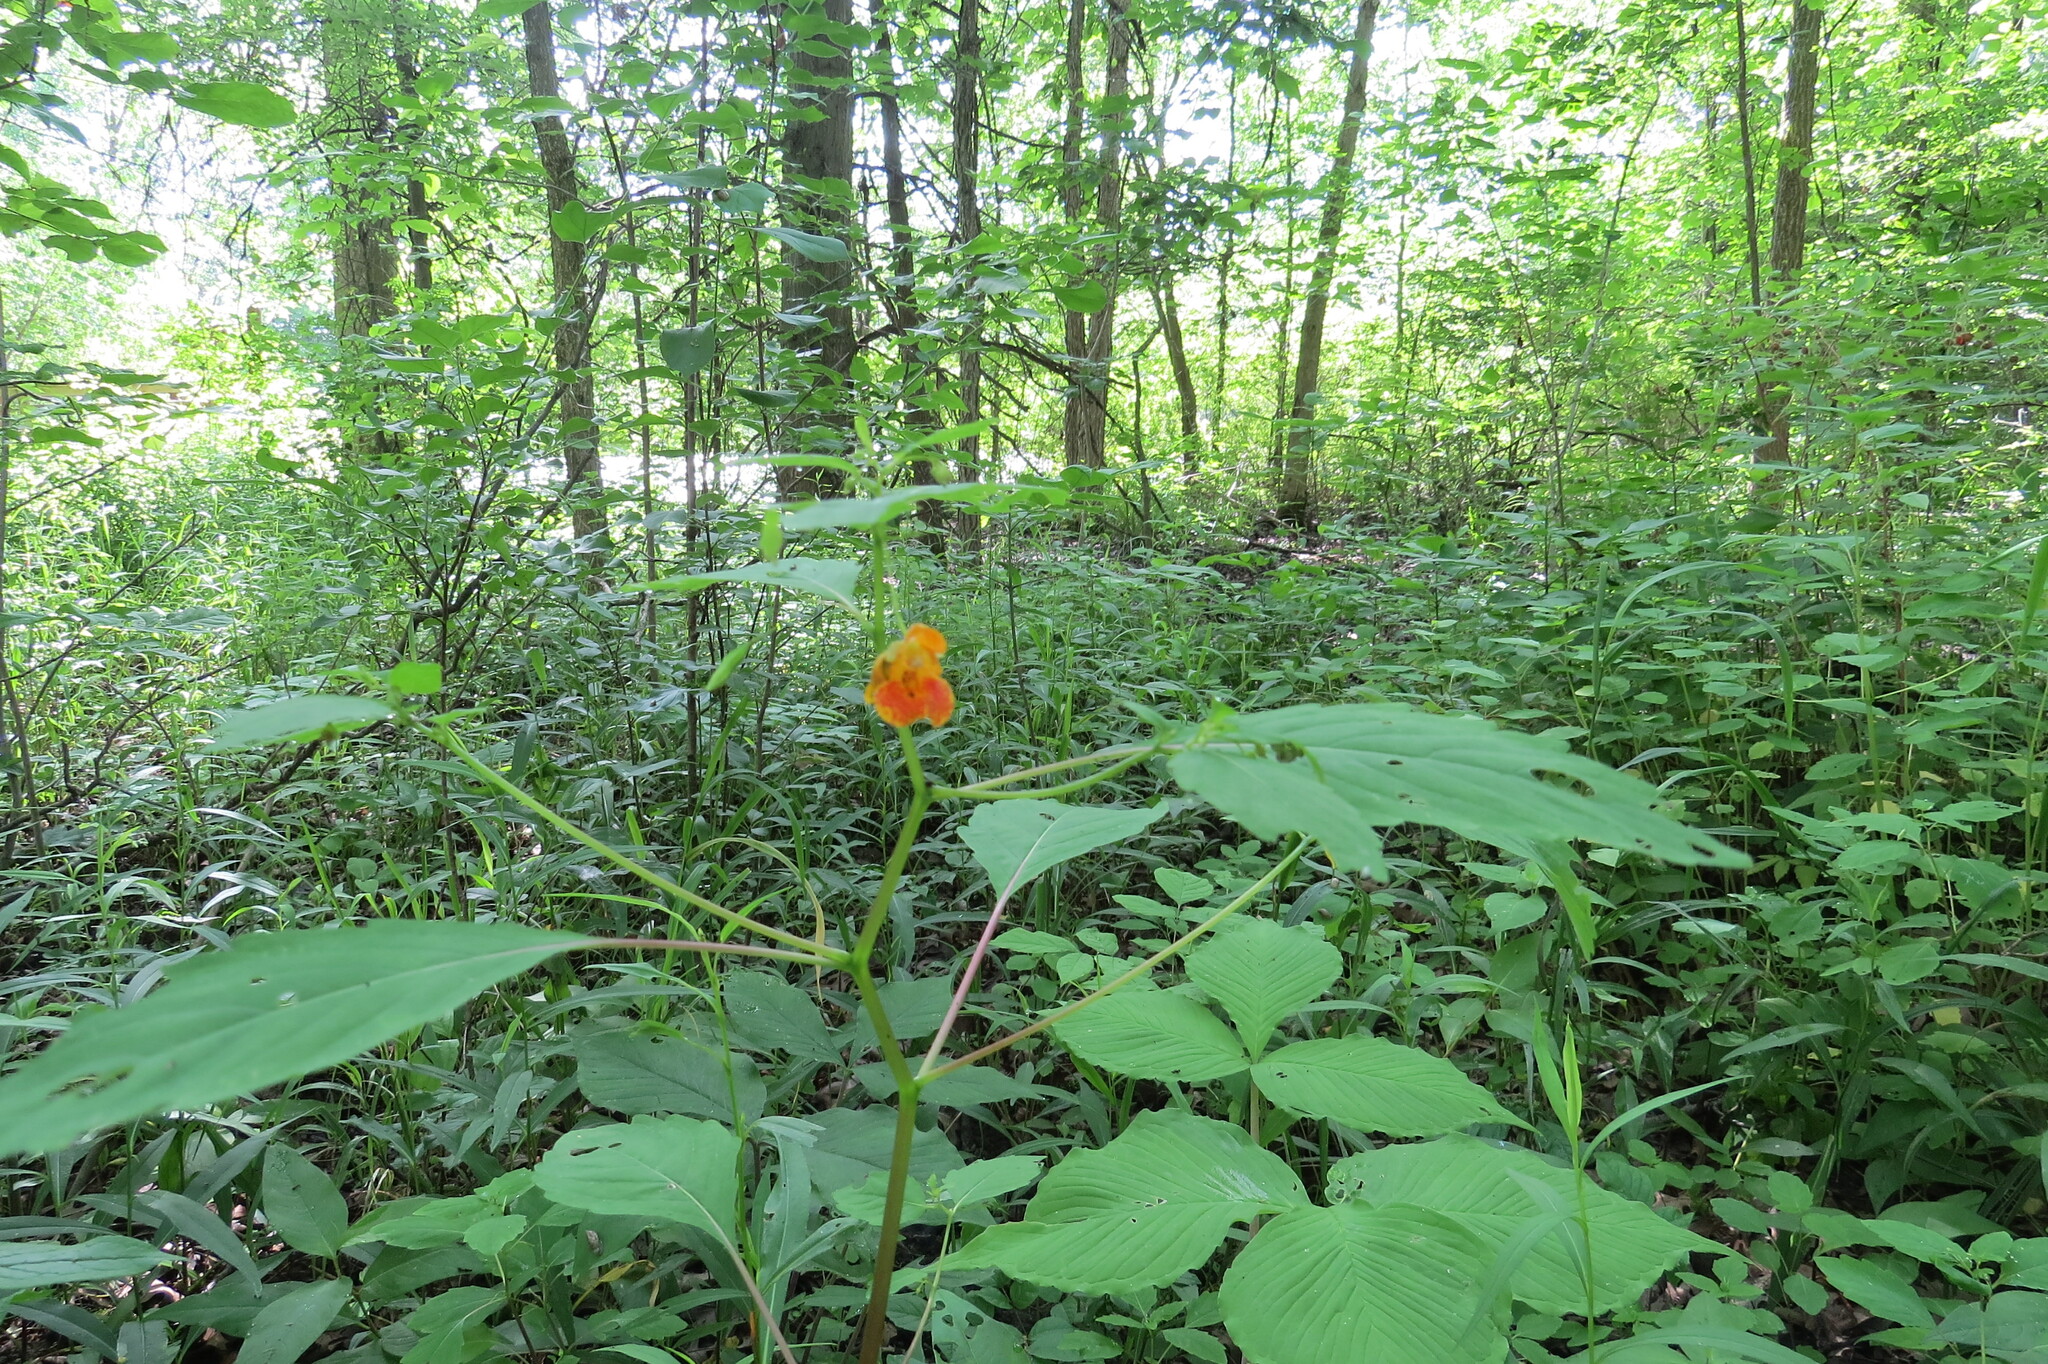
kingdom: Plantae
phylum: Tracheophyta
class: Magnoliopsida
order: Ericales
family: Balsaminaceae
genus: Impatiens
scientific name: Impatiens capensis
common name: Orange balsam
